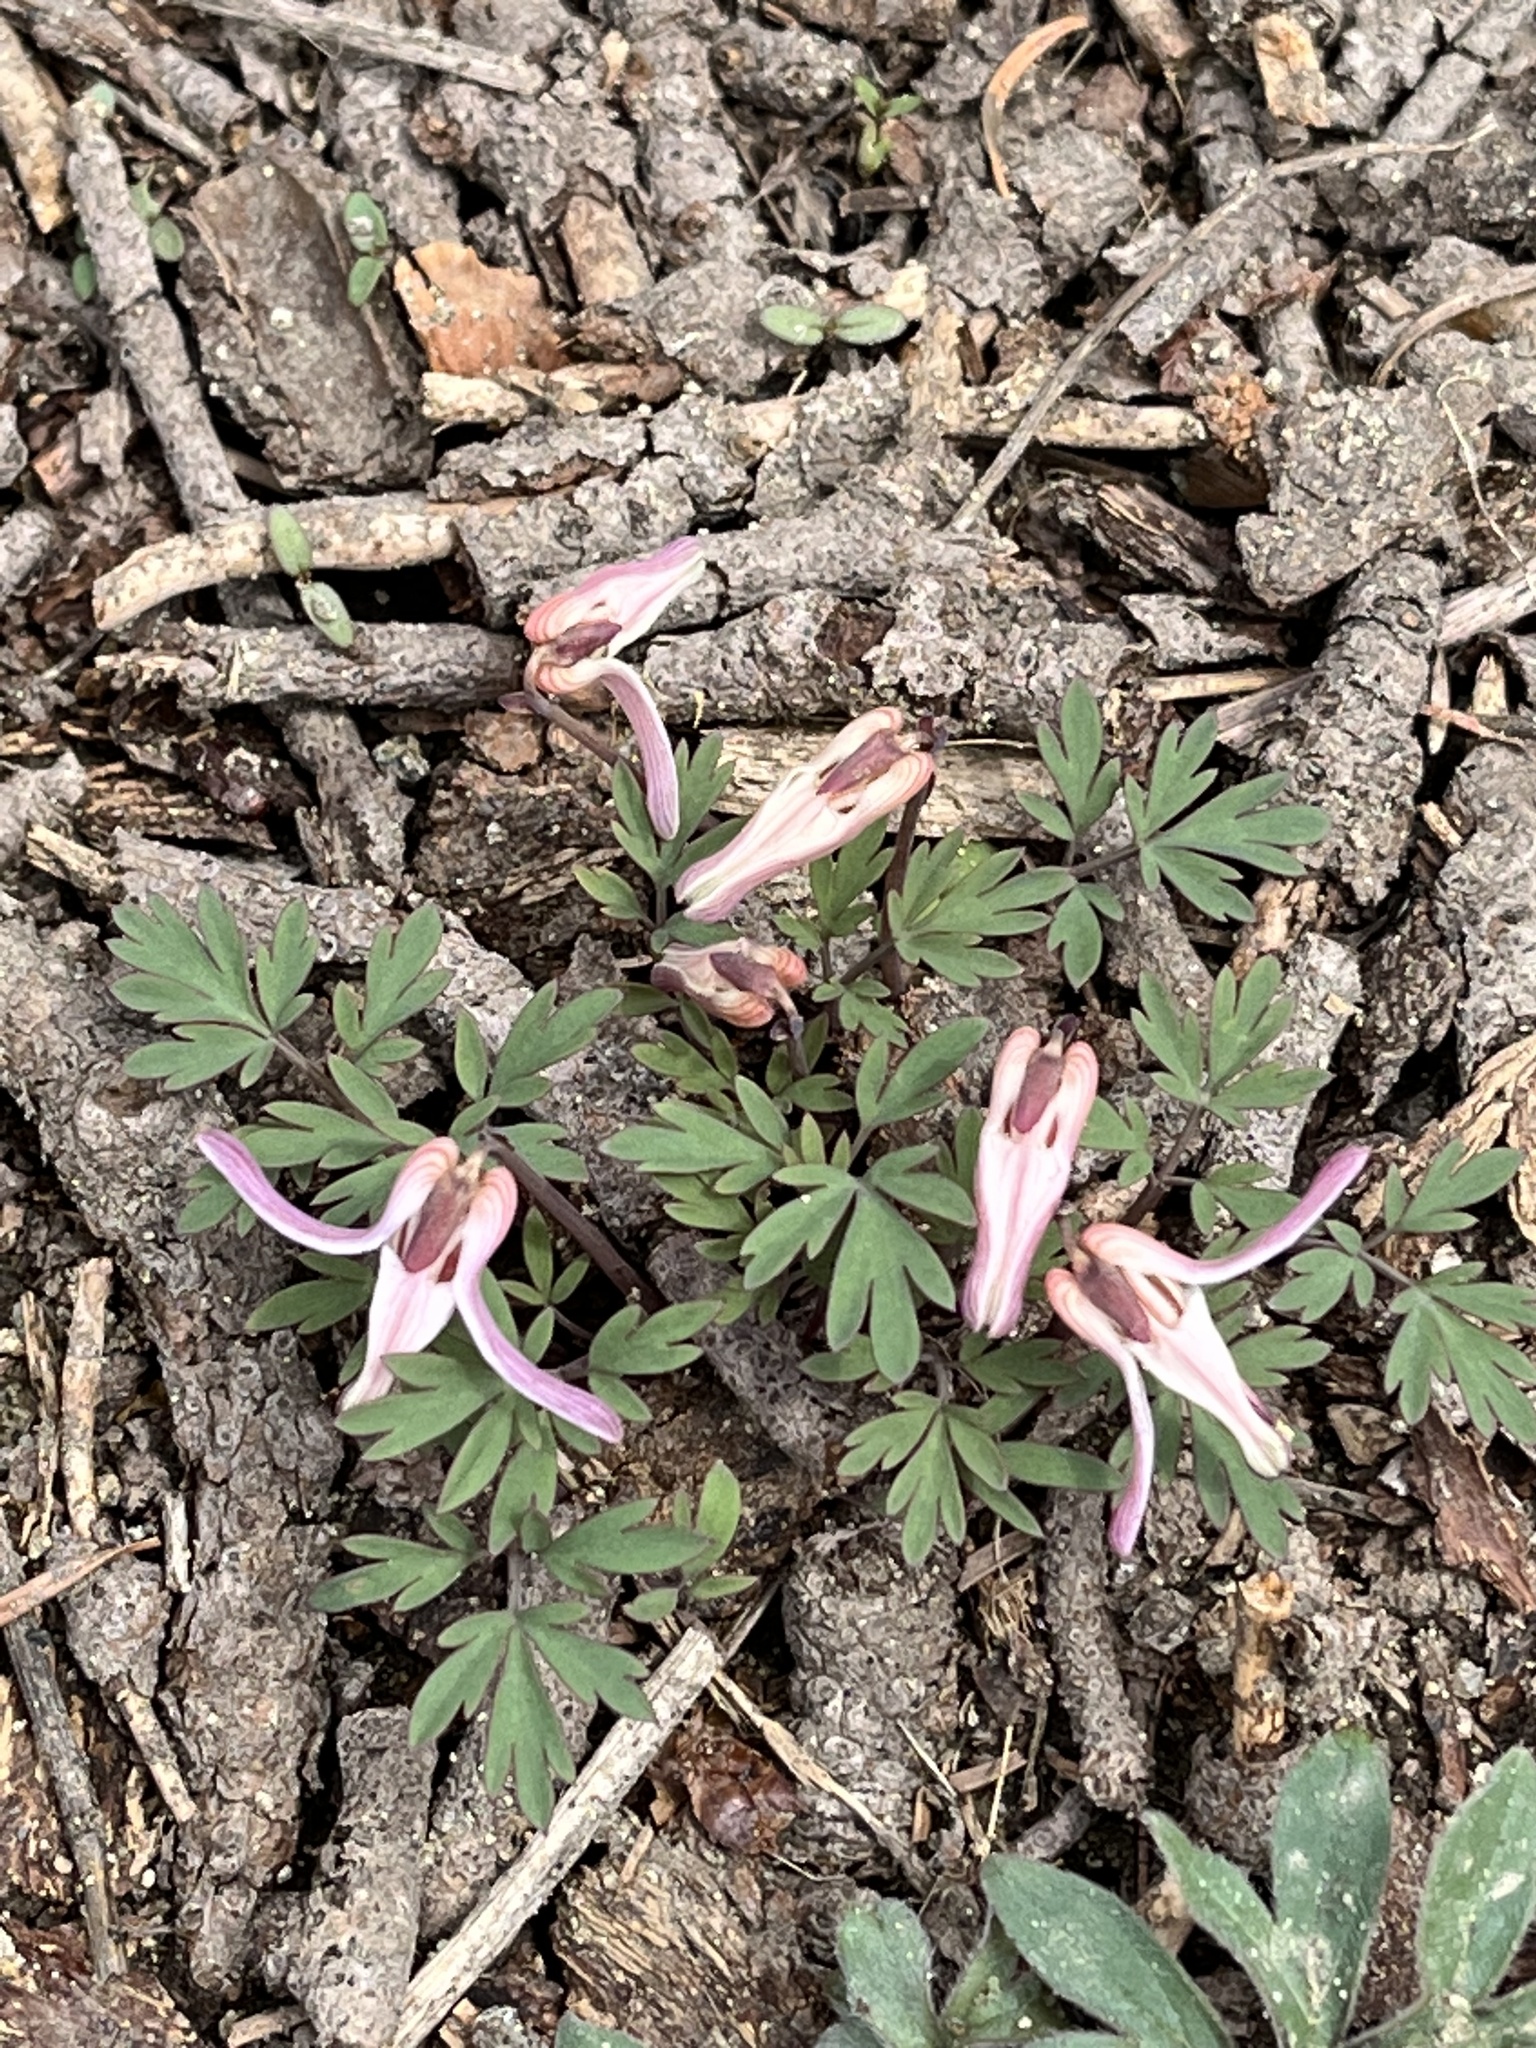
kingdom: Plantae
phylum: Tracheophyta
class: Magnoliopsida
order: Ranunculales
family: Papaveraceae
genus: Dicentra
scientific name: Dicentra uniflora
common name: Steer's-head
